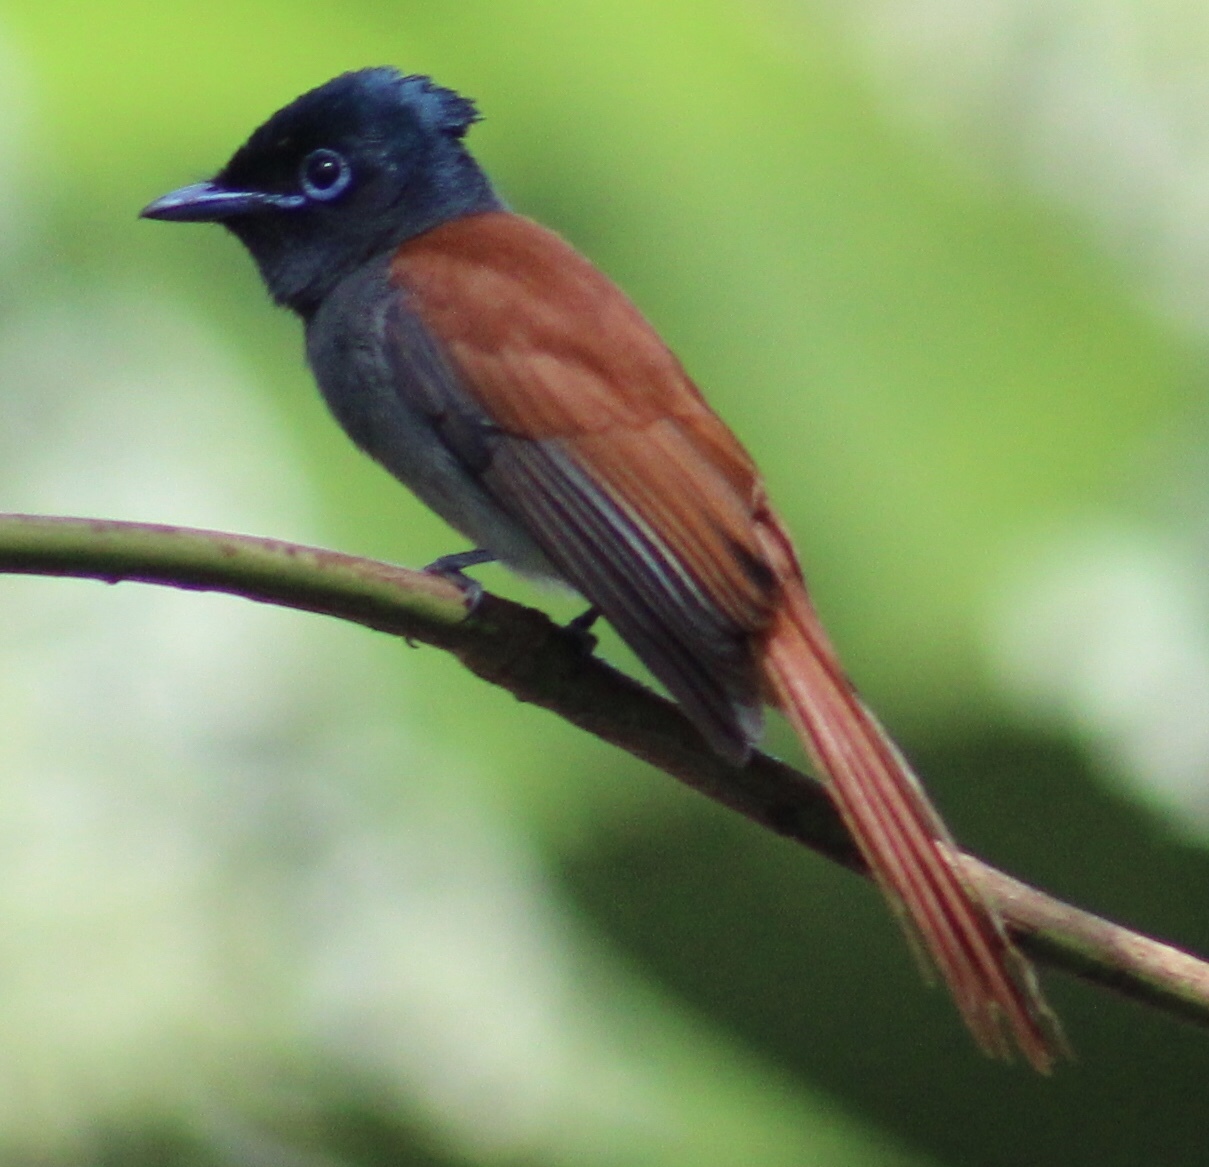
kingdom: Animalia
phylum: Chordata
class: Aves
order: Passeriformes
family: Monarchidae
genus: Terpsiphone
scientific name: Terpsiphone viridis
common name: African paradise flycatcher
